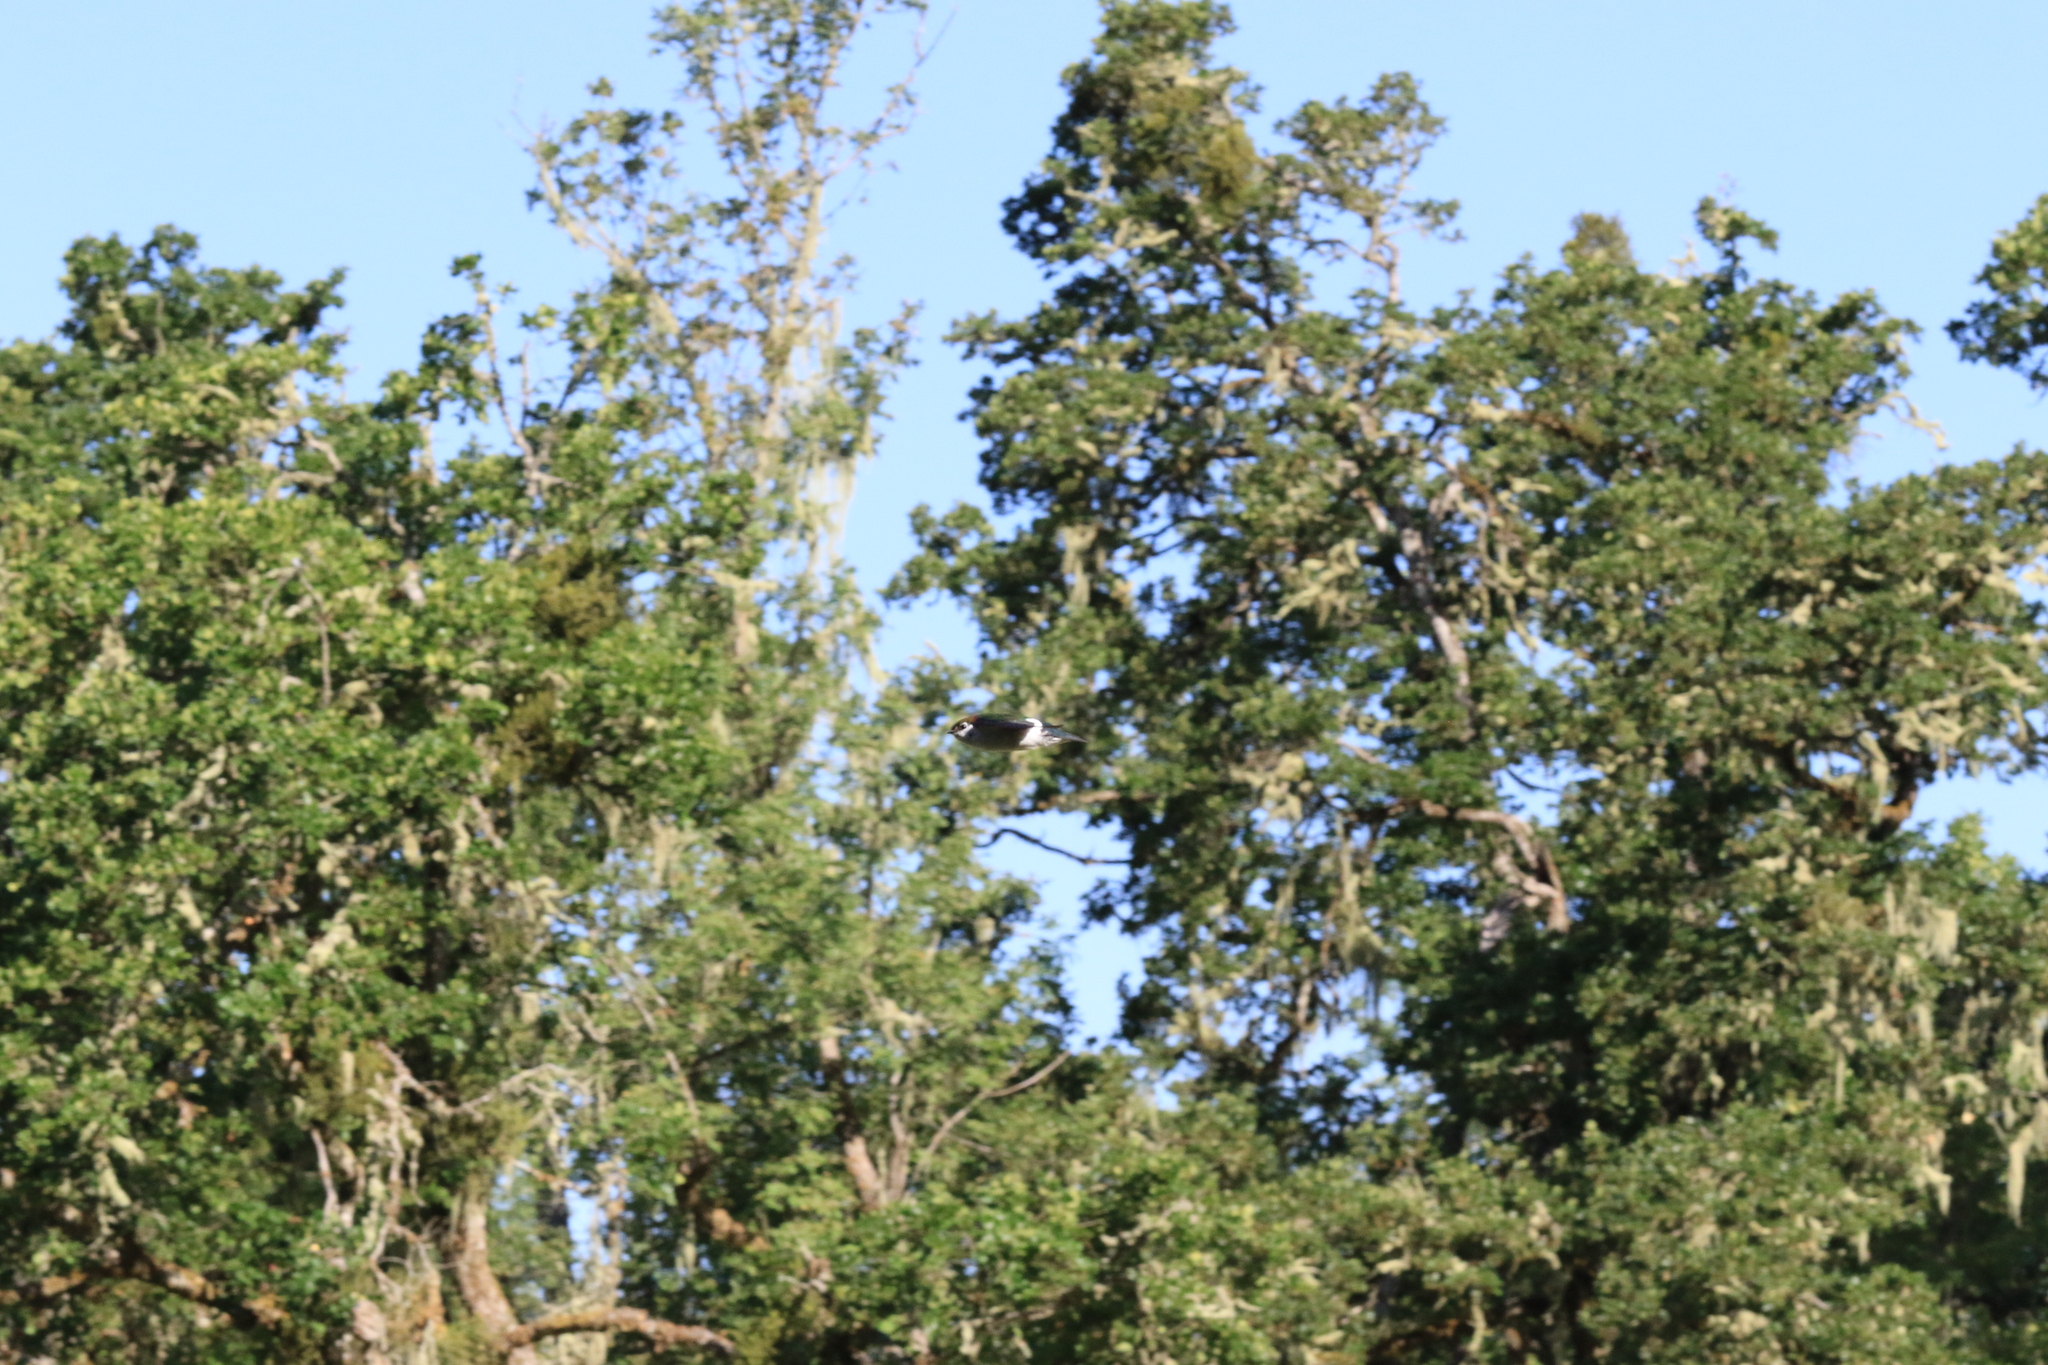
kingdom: Animalia
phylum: Chordata
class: Aves
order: Passeriformes
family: Hirundinidae
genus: Tachycineta
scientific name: Tachycineta thalassina
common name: Violet-green swallow
